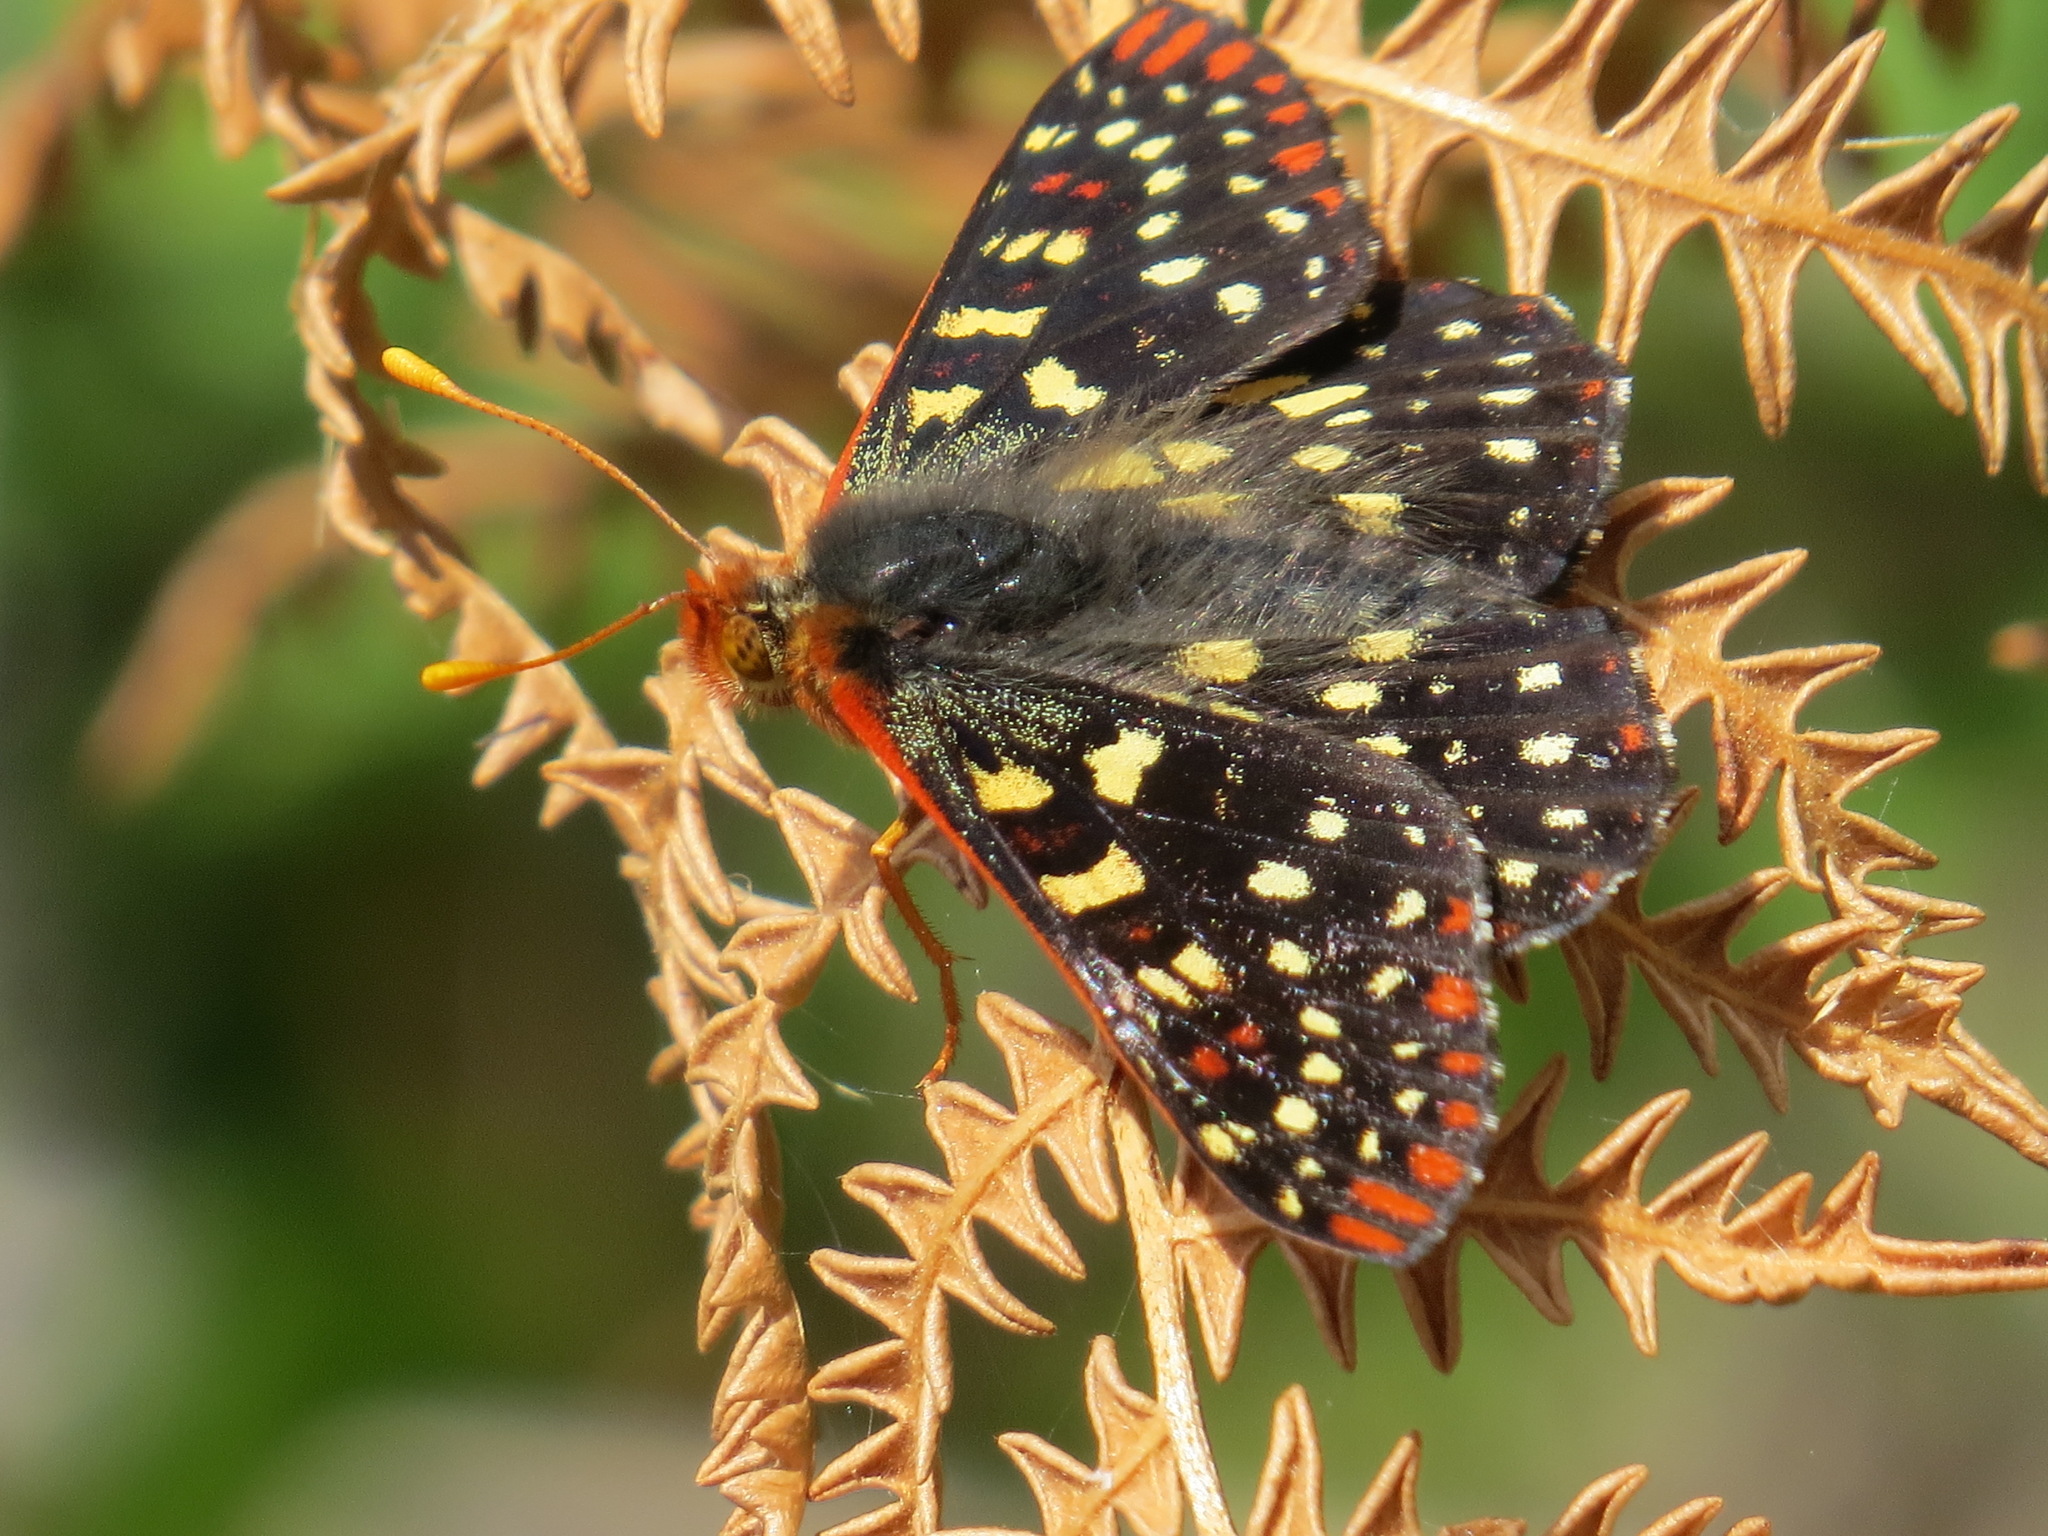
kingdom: Animalia
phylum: Arthropoda
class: Insecta
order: Lepidoptera
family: Nymphalidae
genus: Occidryas
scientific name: Occidryas chalcedona
